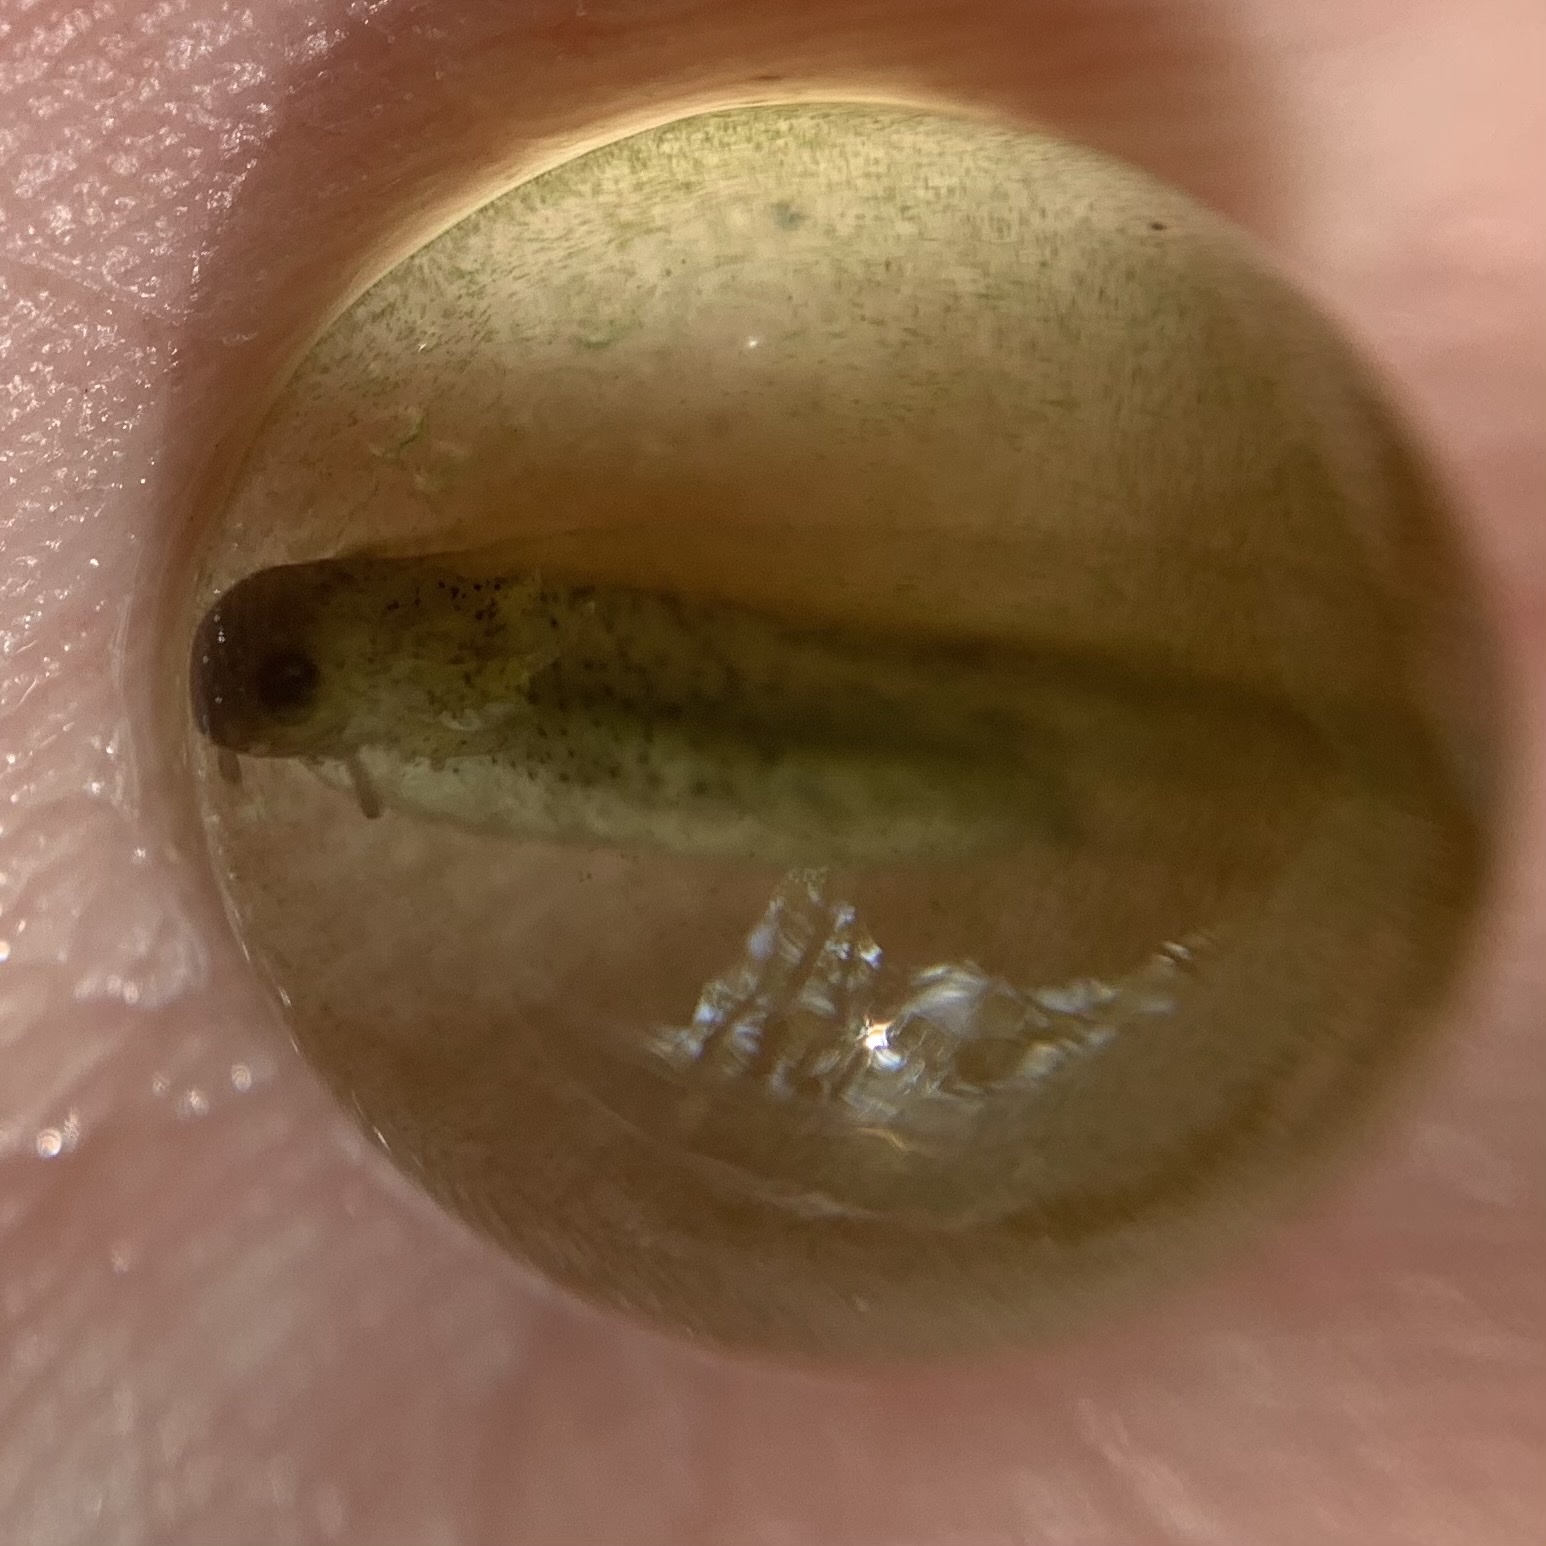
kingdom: Animalia
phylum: Chordata
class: Amphibia
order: Caudata
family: Ambystomatidae
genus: Ambystoma
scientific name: Ambystoma maculatum
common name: Spotted salamander
